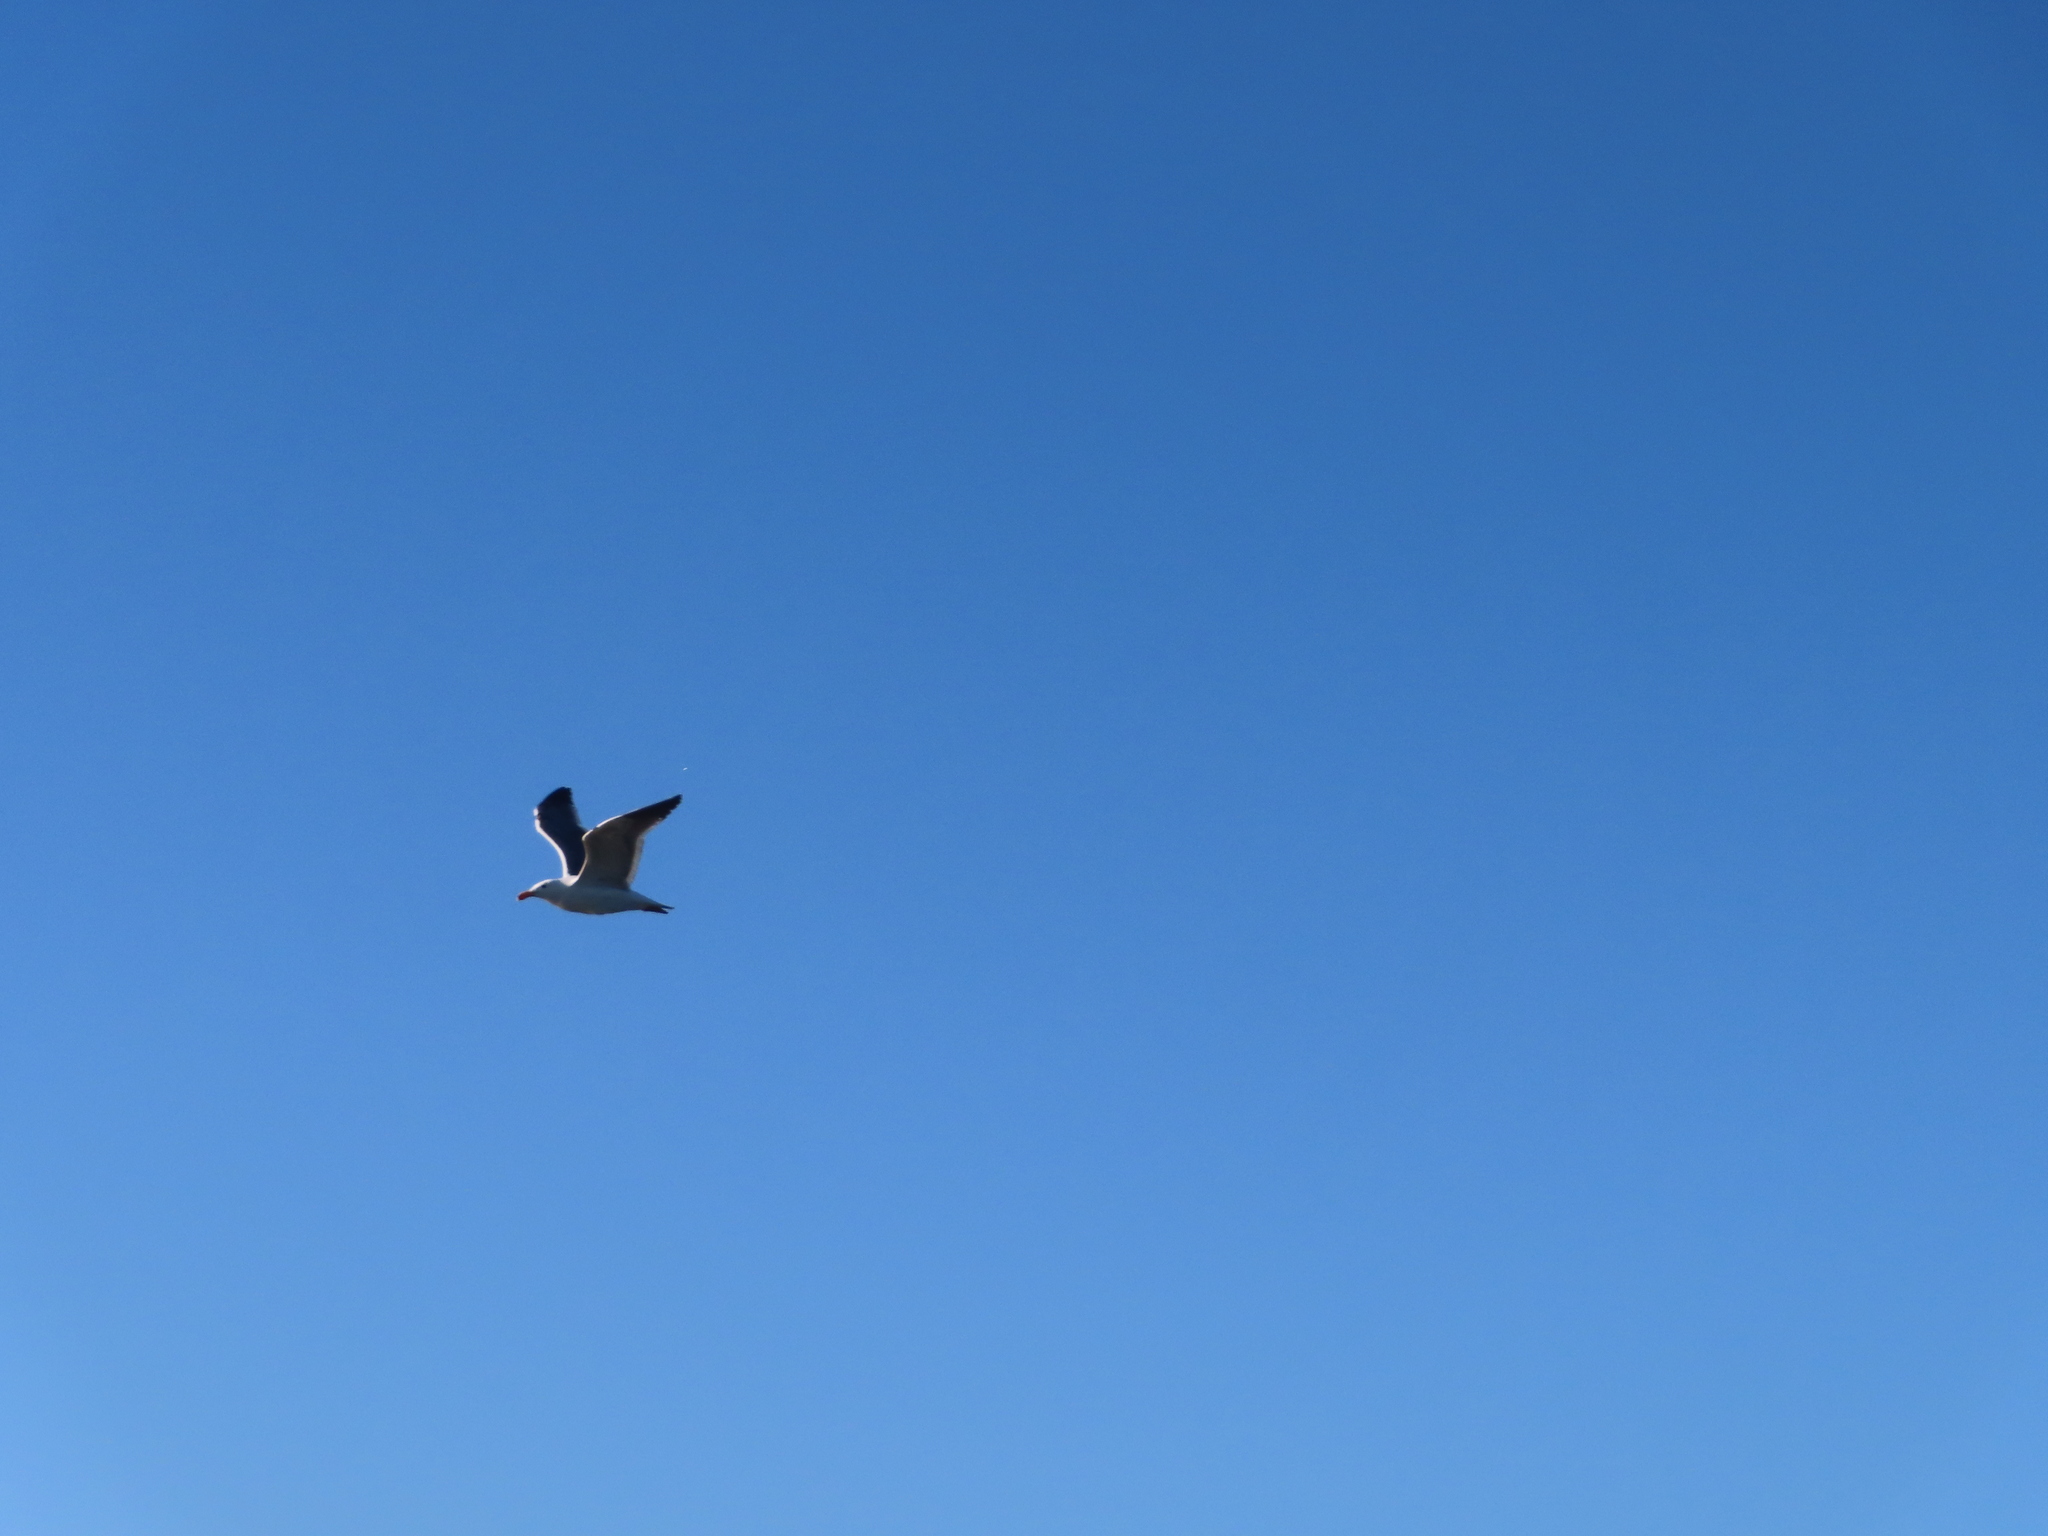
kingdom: Animalia
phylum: Chordata
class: Aves
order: Charadriiformes
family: Laridae
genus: Larus
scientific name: Larus occidentalis
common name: Western gull
